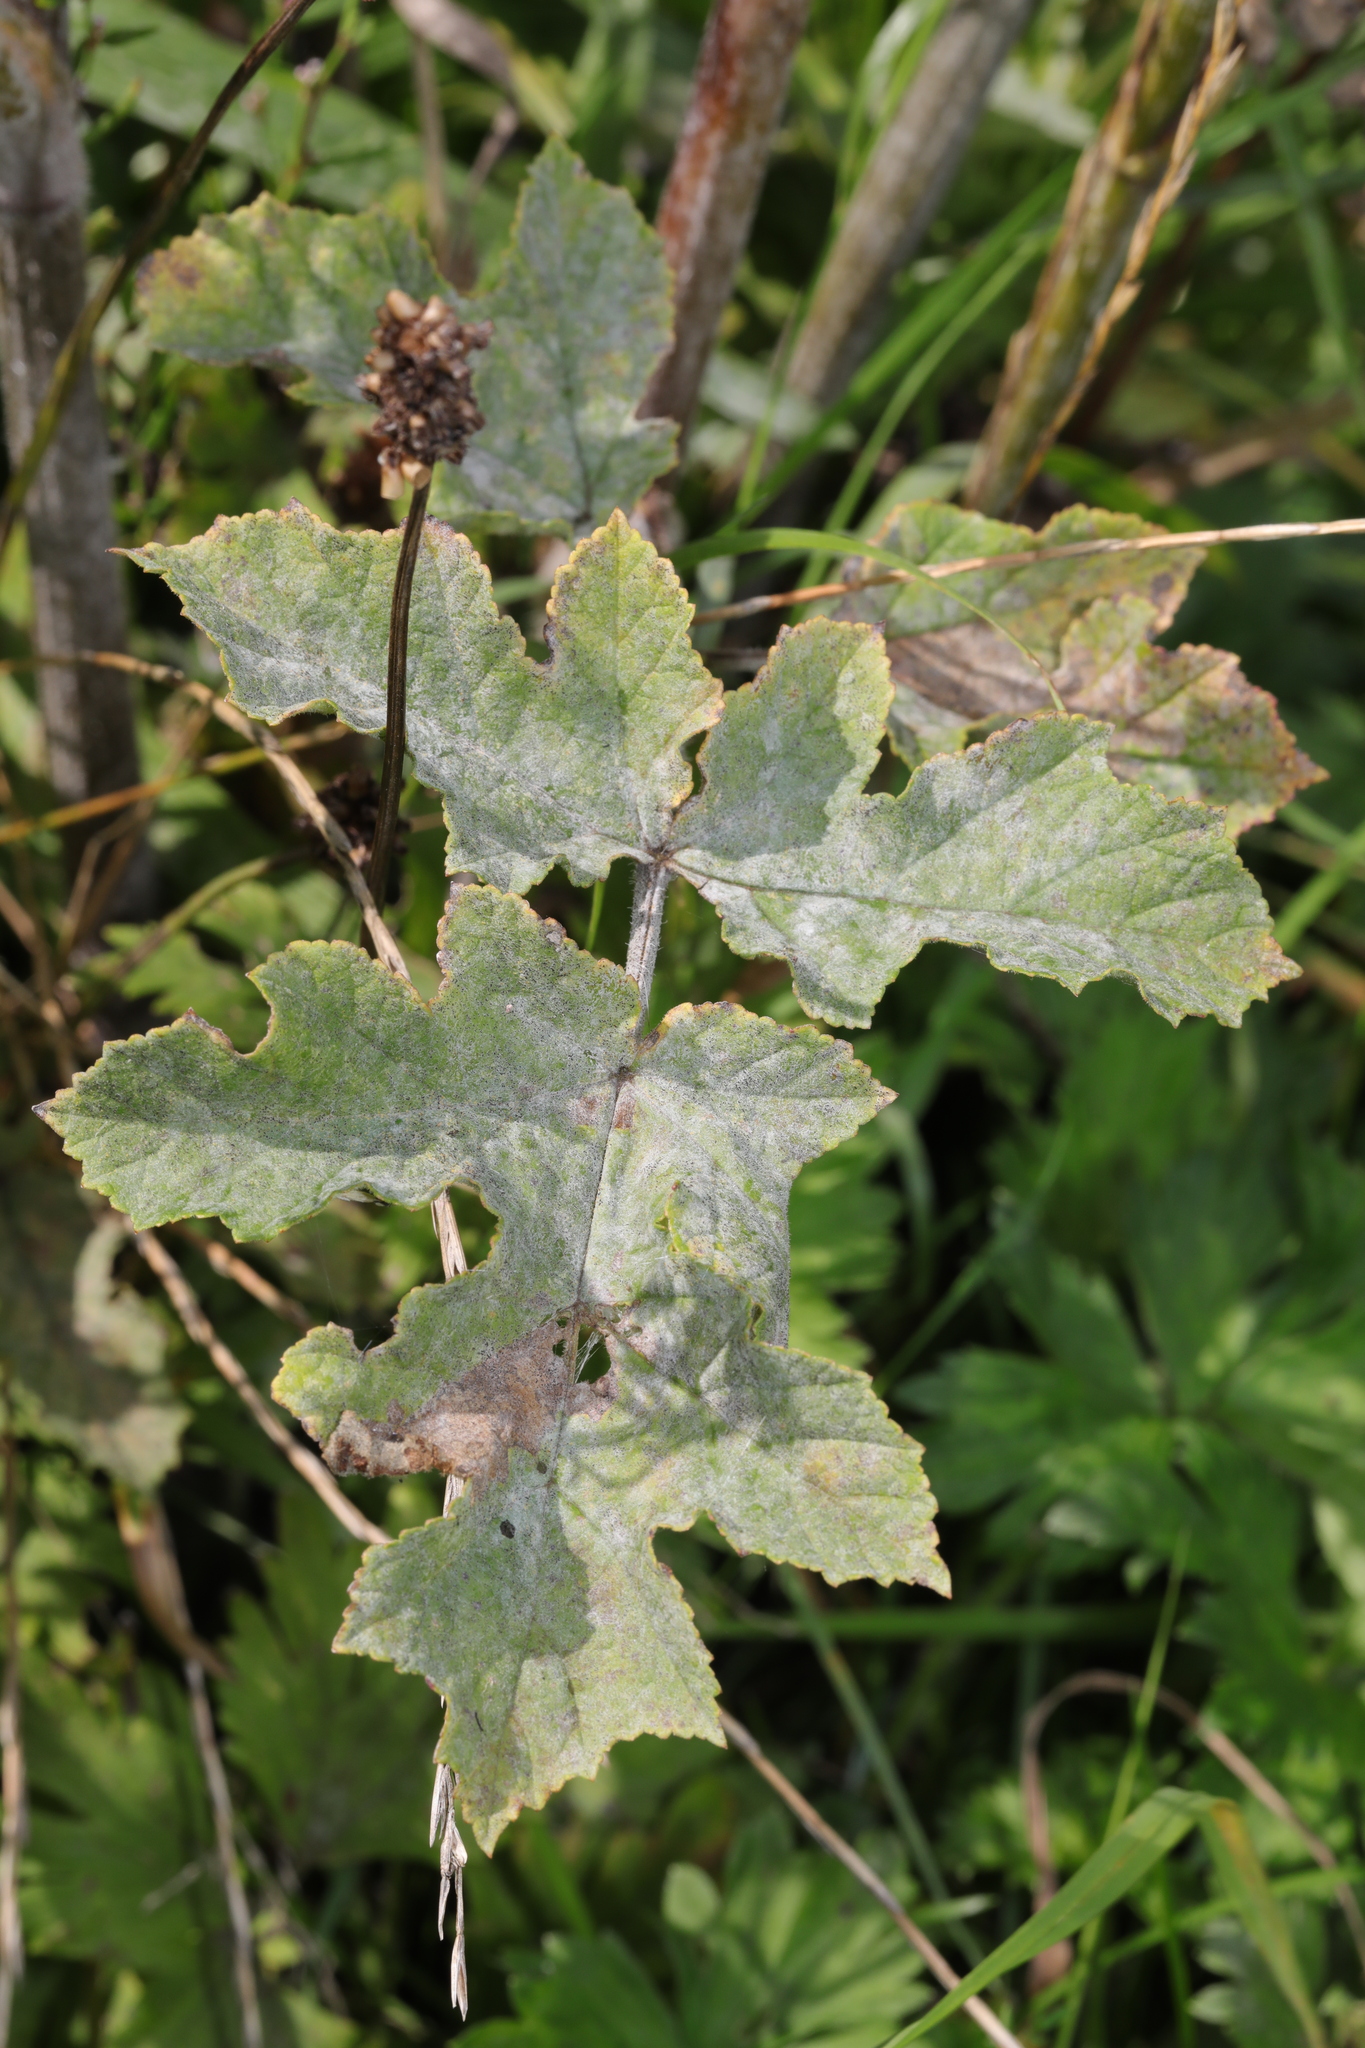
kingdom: Fungi
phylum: Ascomycota
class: Leotiomycetes
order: Helotiales
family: Erysiphaceae
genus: Erysiphe
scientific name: Erysiphe heraclei
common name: Umbellifer mildew
